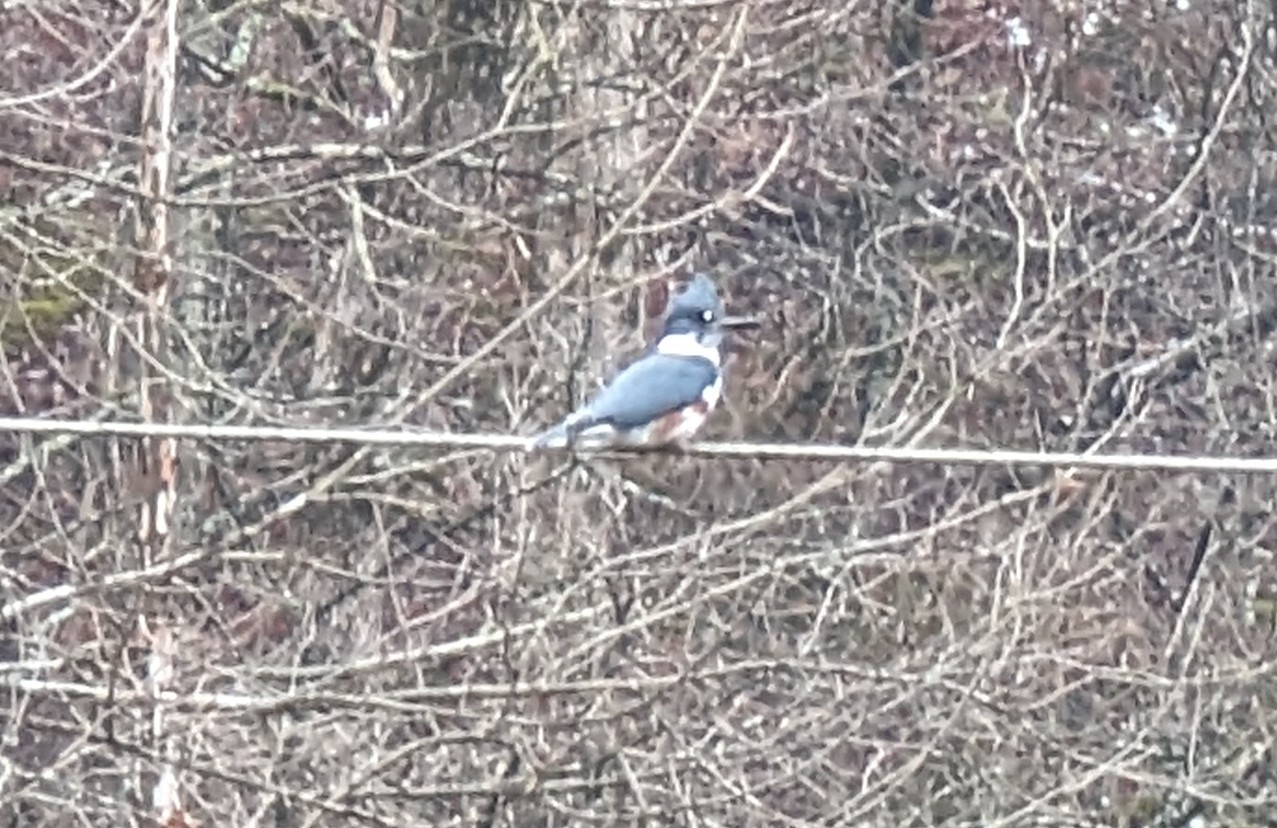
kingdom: Animalia
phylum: Chordata
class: Aves
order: Coraciiformes
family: Alcedinidae
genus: Megaceryle
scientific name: Megaceryle alcyon
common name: Belted kingfisher
